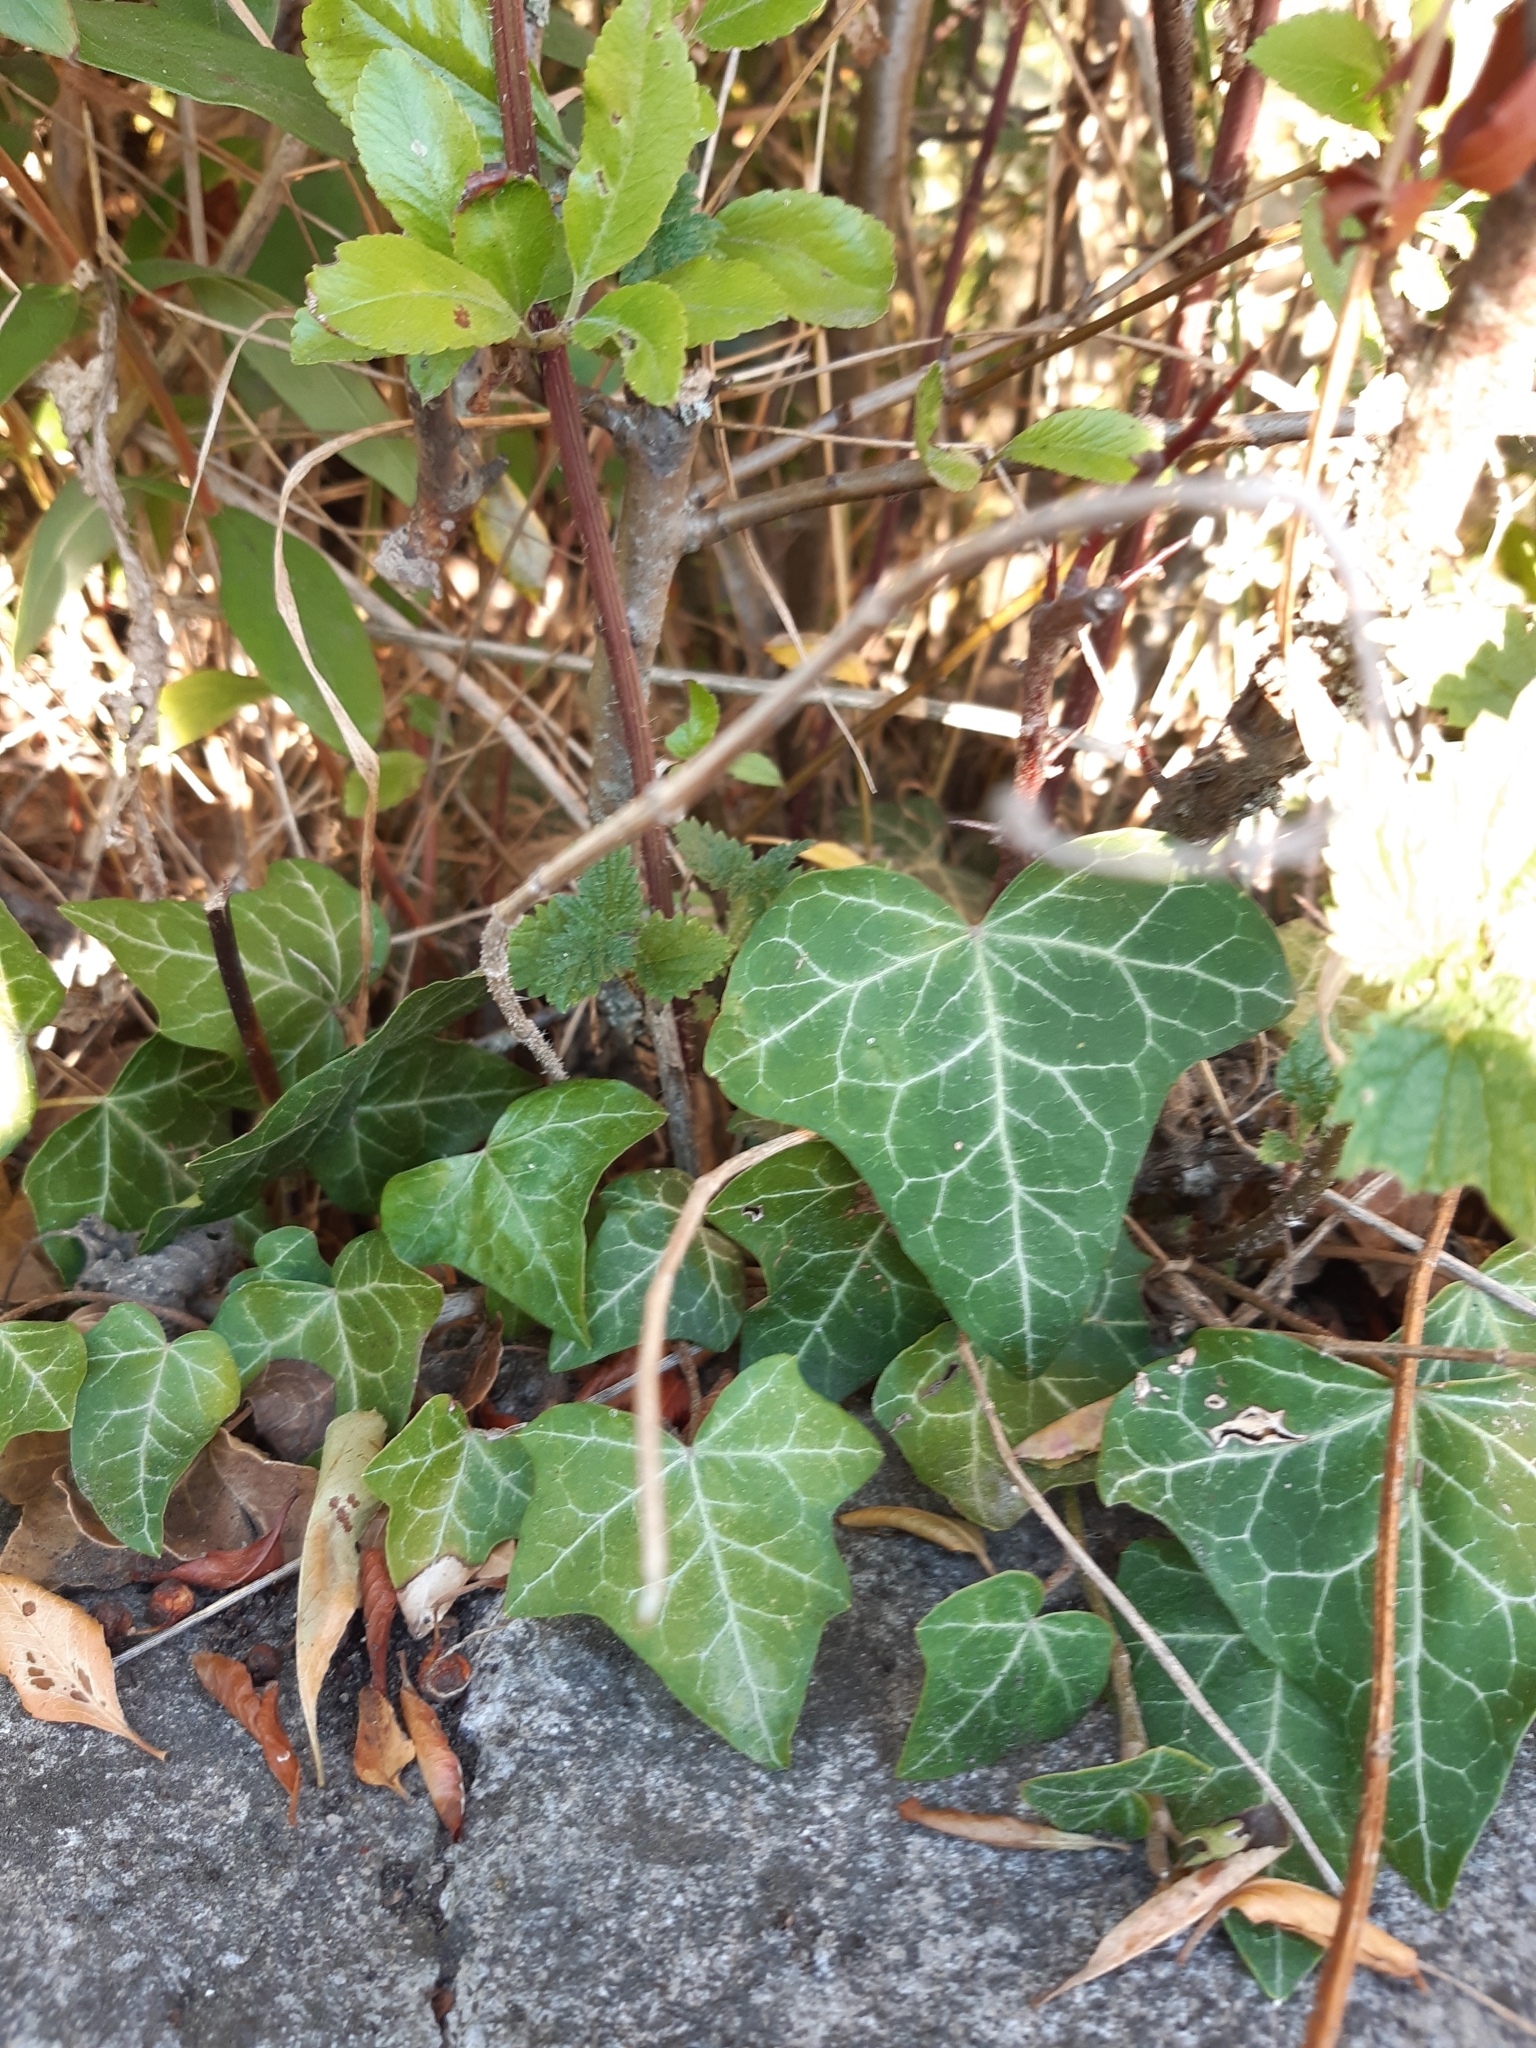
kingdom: Plantae
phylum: Tracheophyta
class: Magnoliopsida
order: Apiales
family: Araliaceae
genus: Hedera
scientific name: Hedera helix
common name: Ivy
